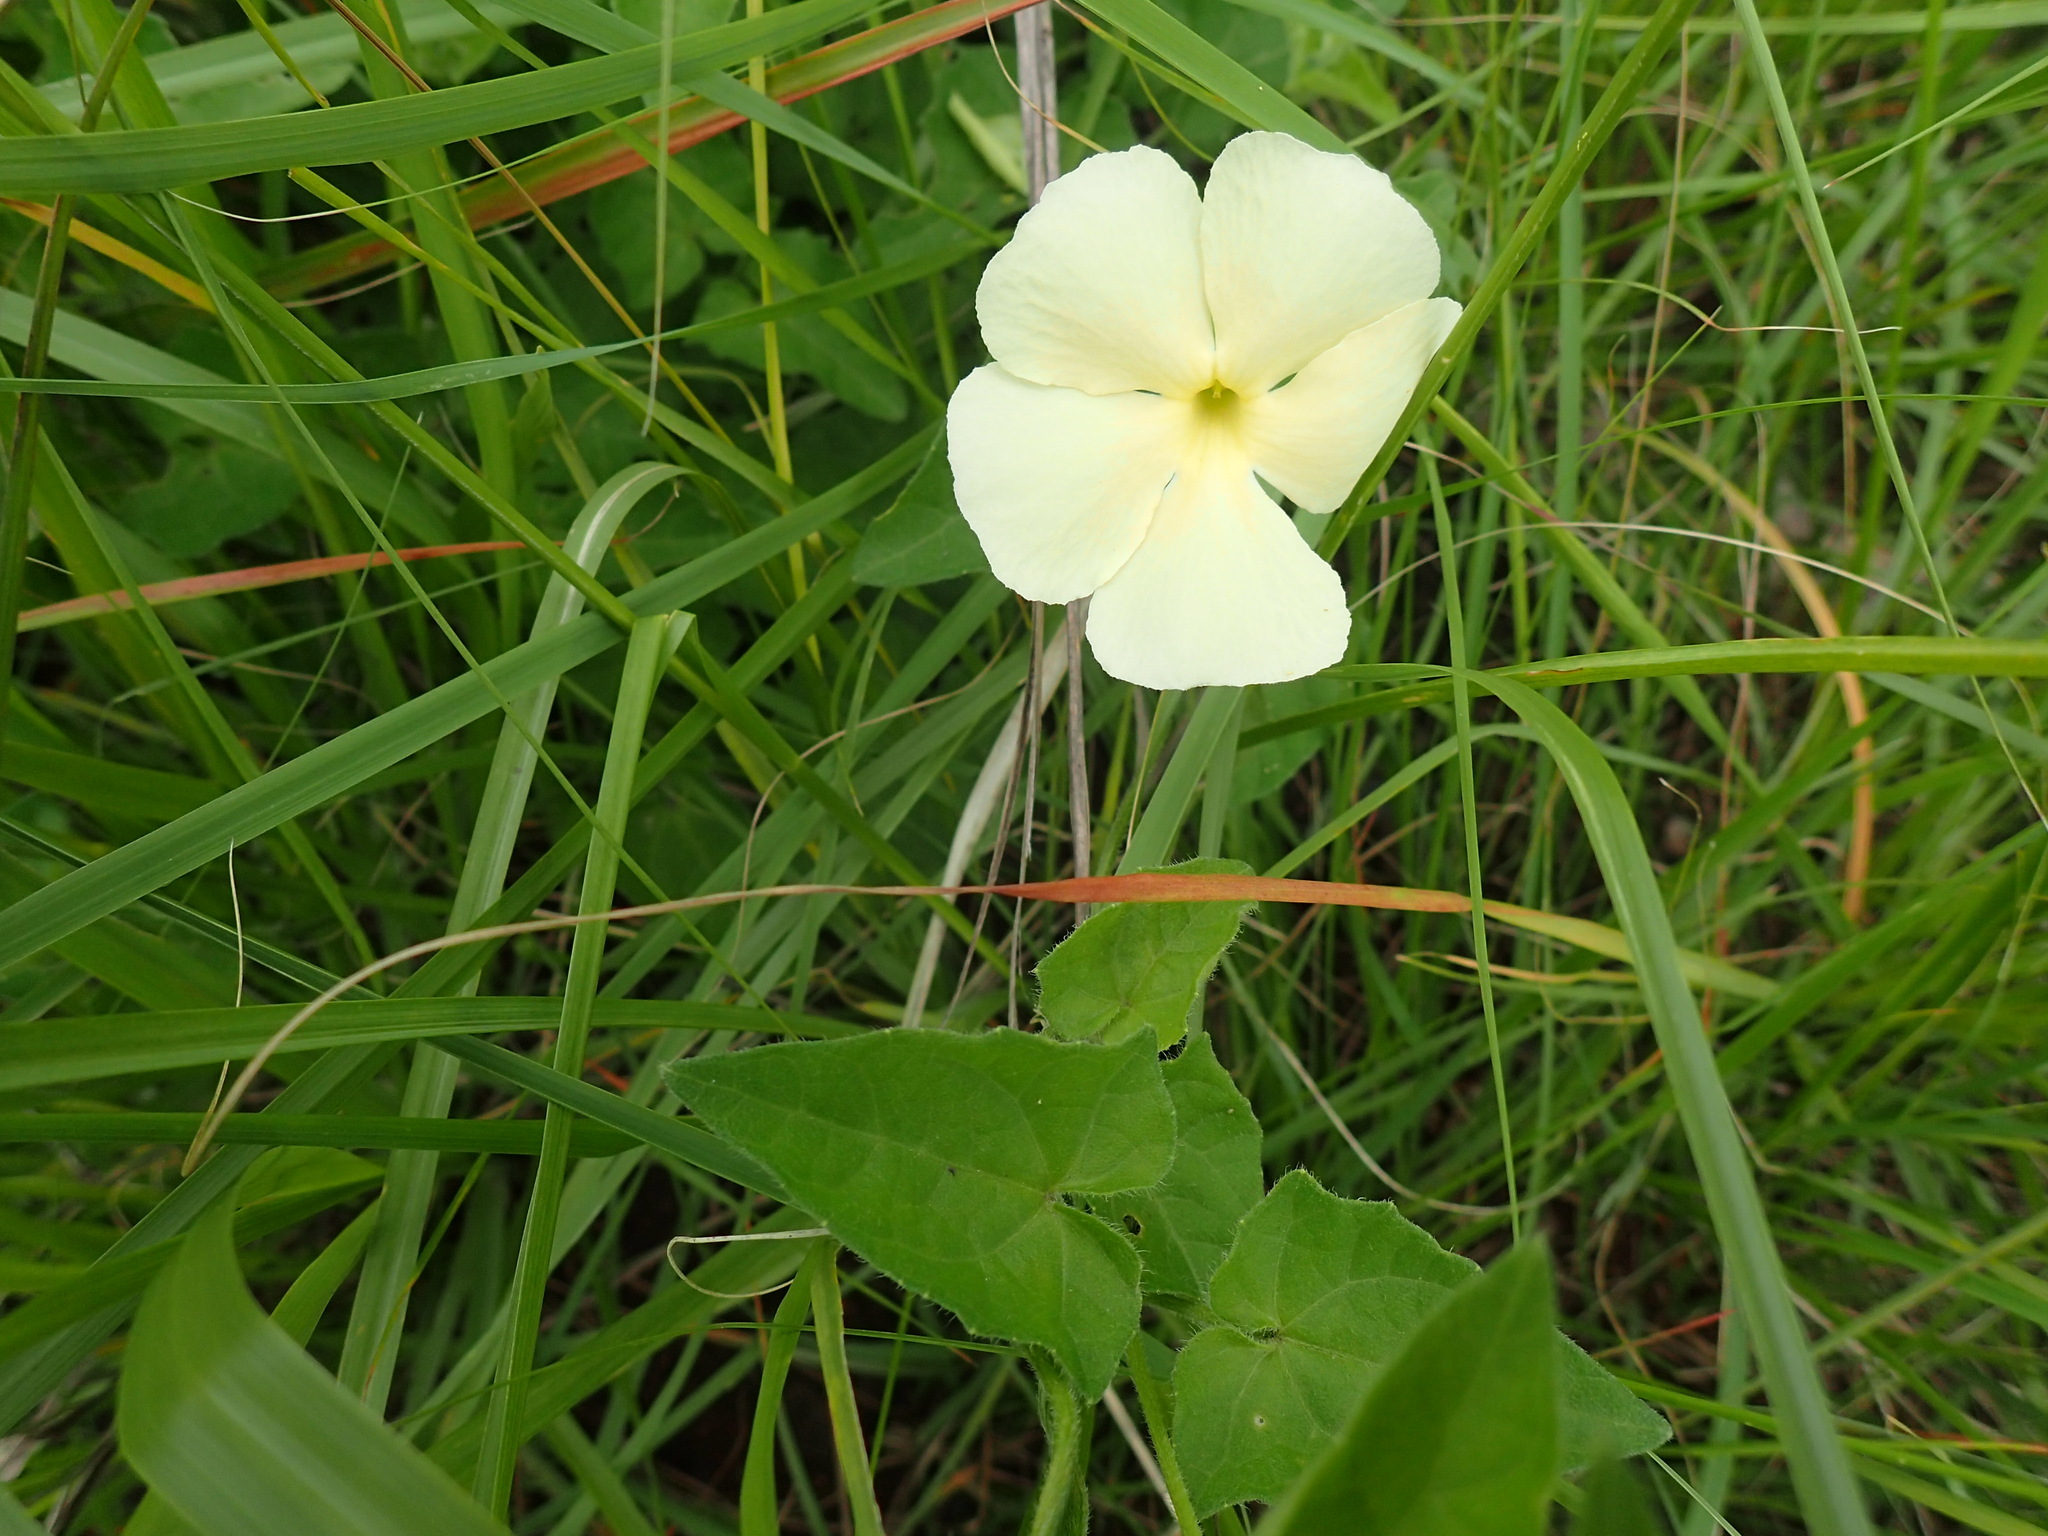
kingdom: Plantae
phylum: Tracheophyta
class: Magnoliopsida
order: Lamiales
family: Acanthaceae
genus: Thunbergia
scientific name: Thunbergia atriplicifolia
